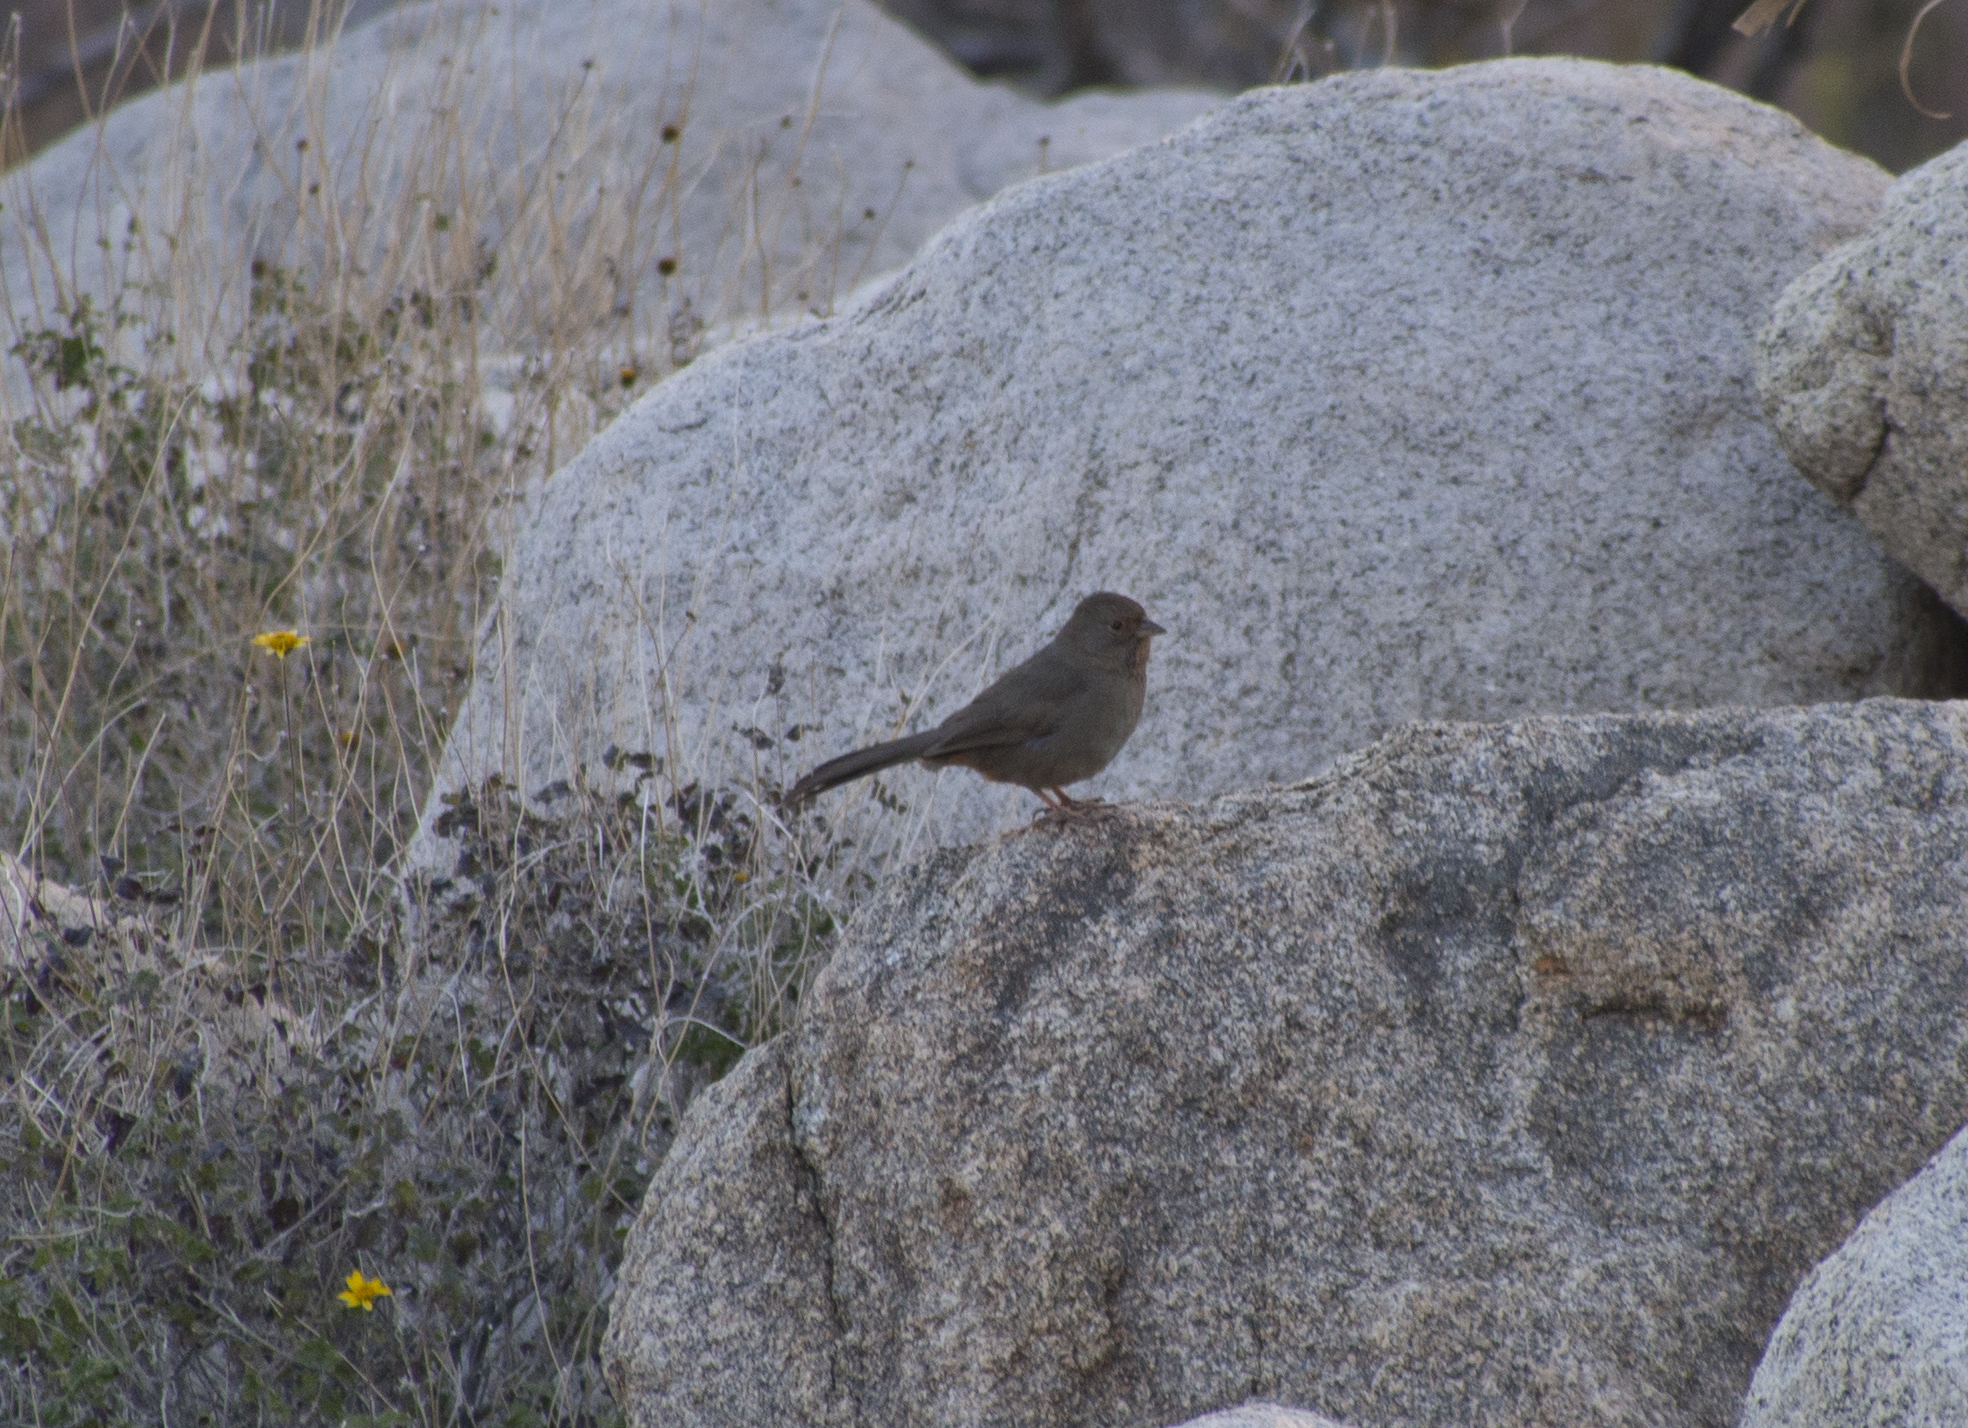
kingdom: Animalia
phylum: Chordata
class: Aves
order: Passeriformes
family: Passerellidae
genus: Melozone
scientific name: Melozone crissalis
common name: California towhee
